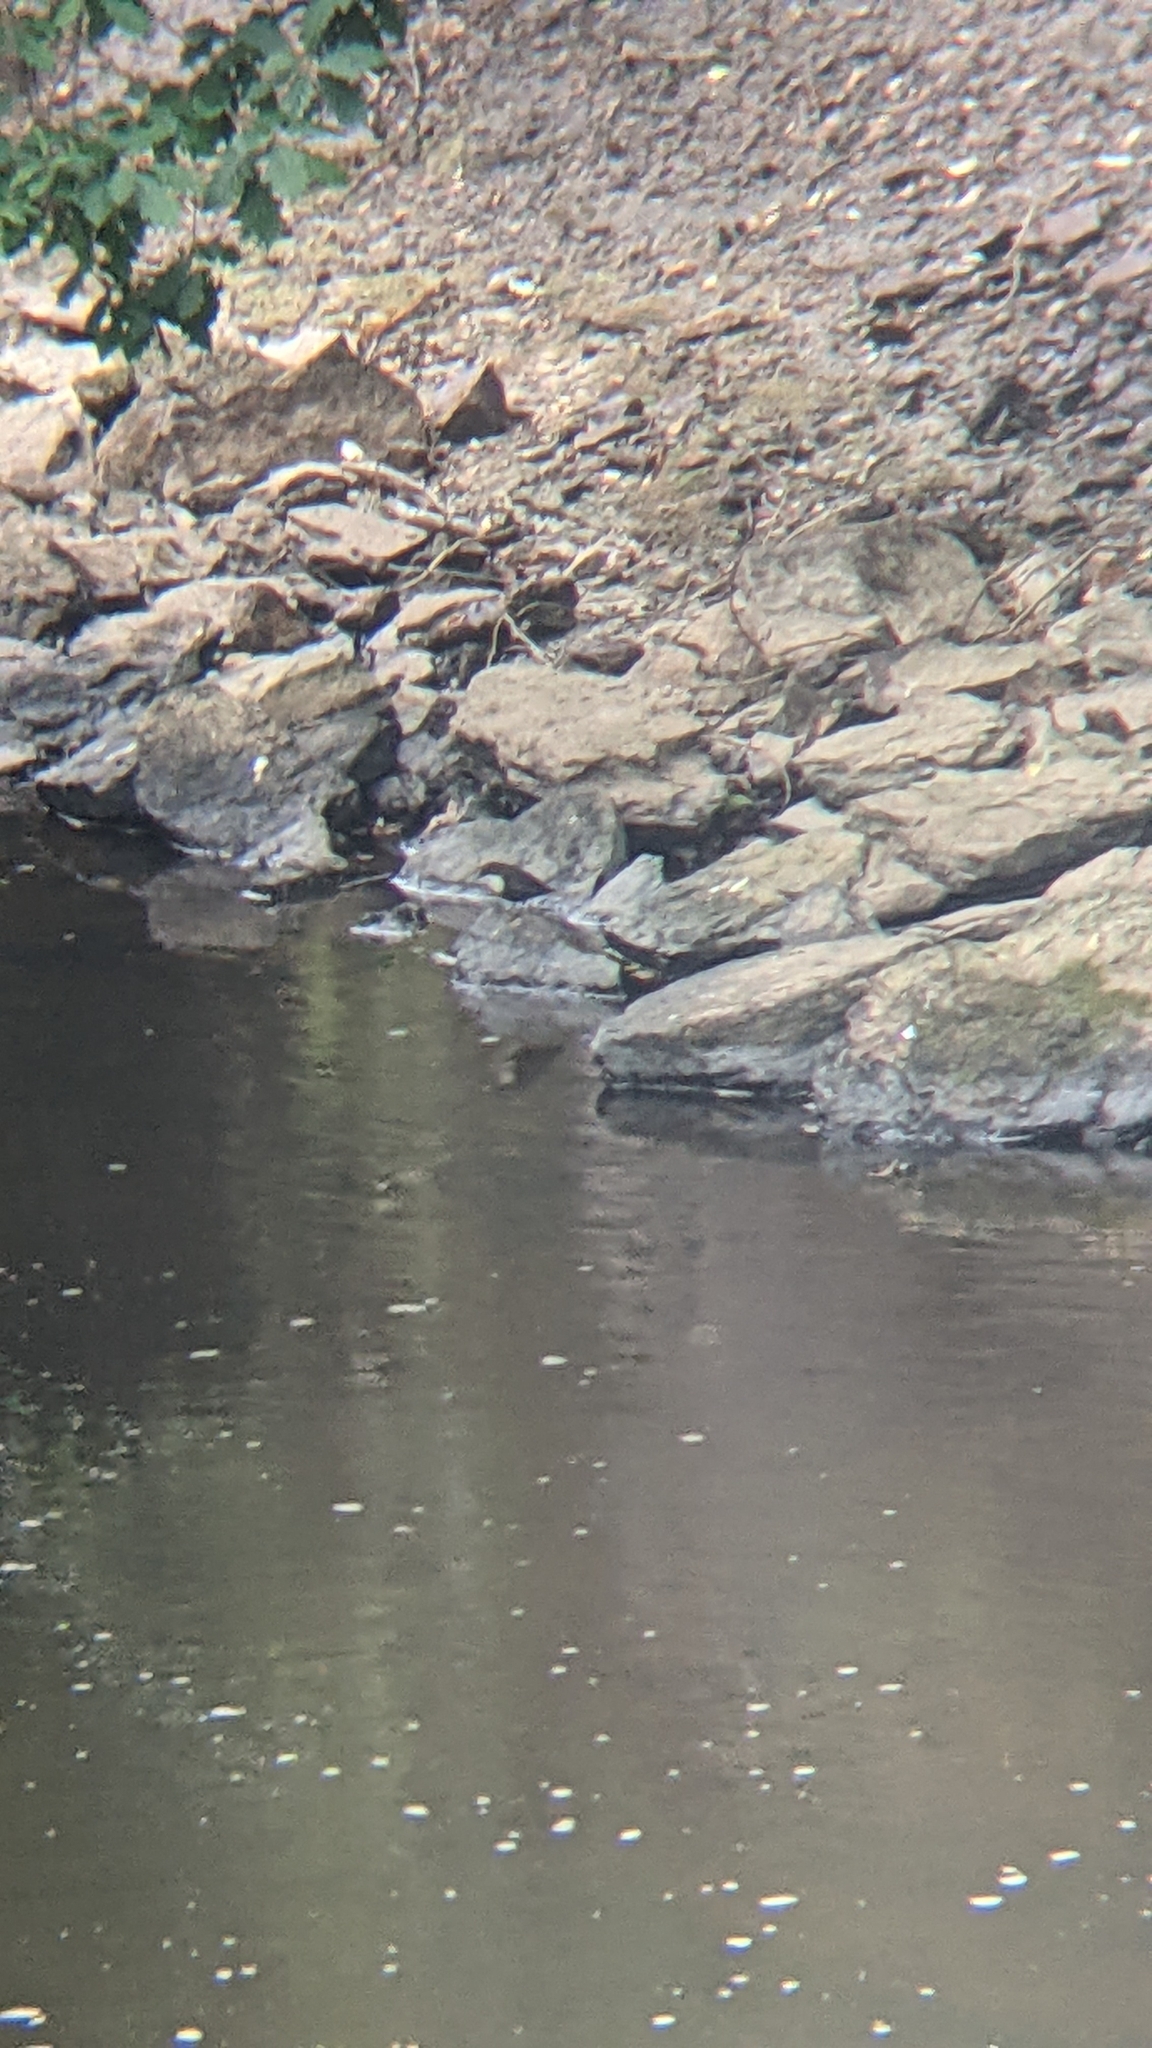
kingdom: Animalia
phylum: Chordata
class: Aves
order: Passeriformes
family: Cinclidae
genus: Cinclus
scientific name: Cinclus cinclus
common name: White-throated dipper
